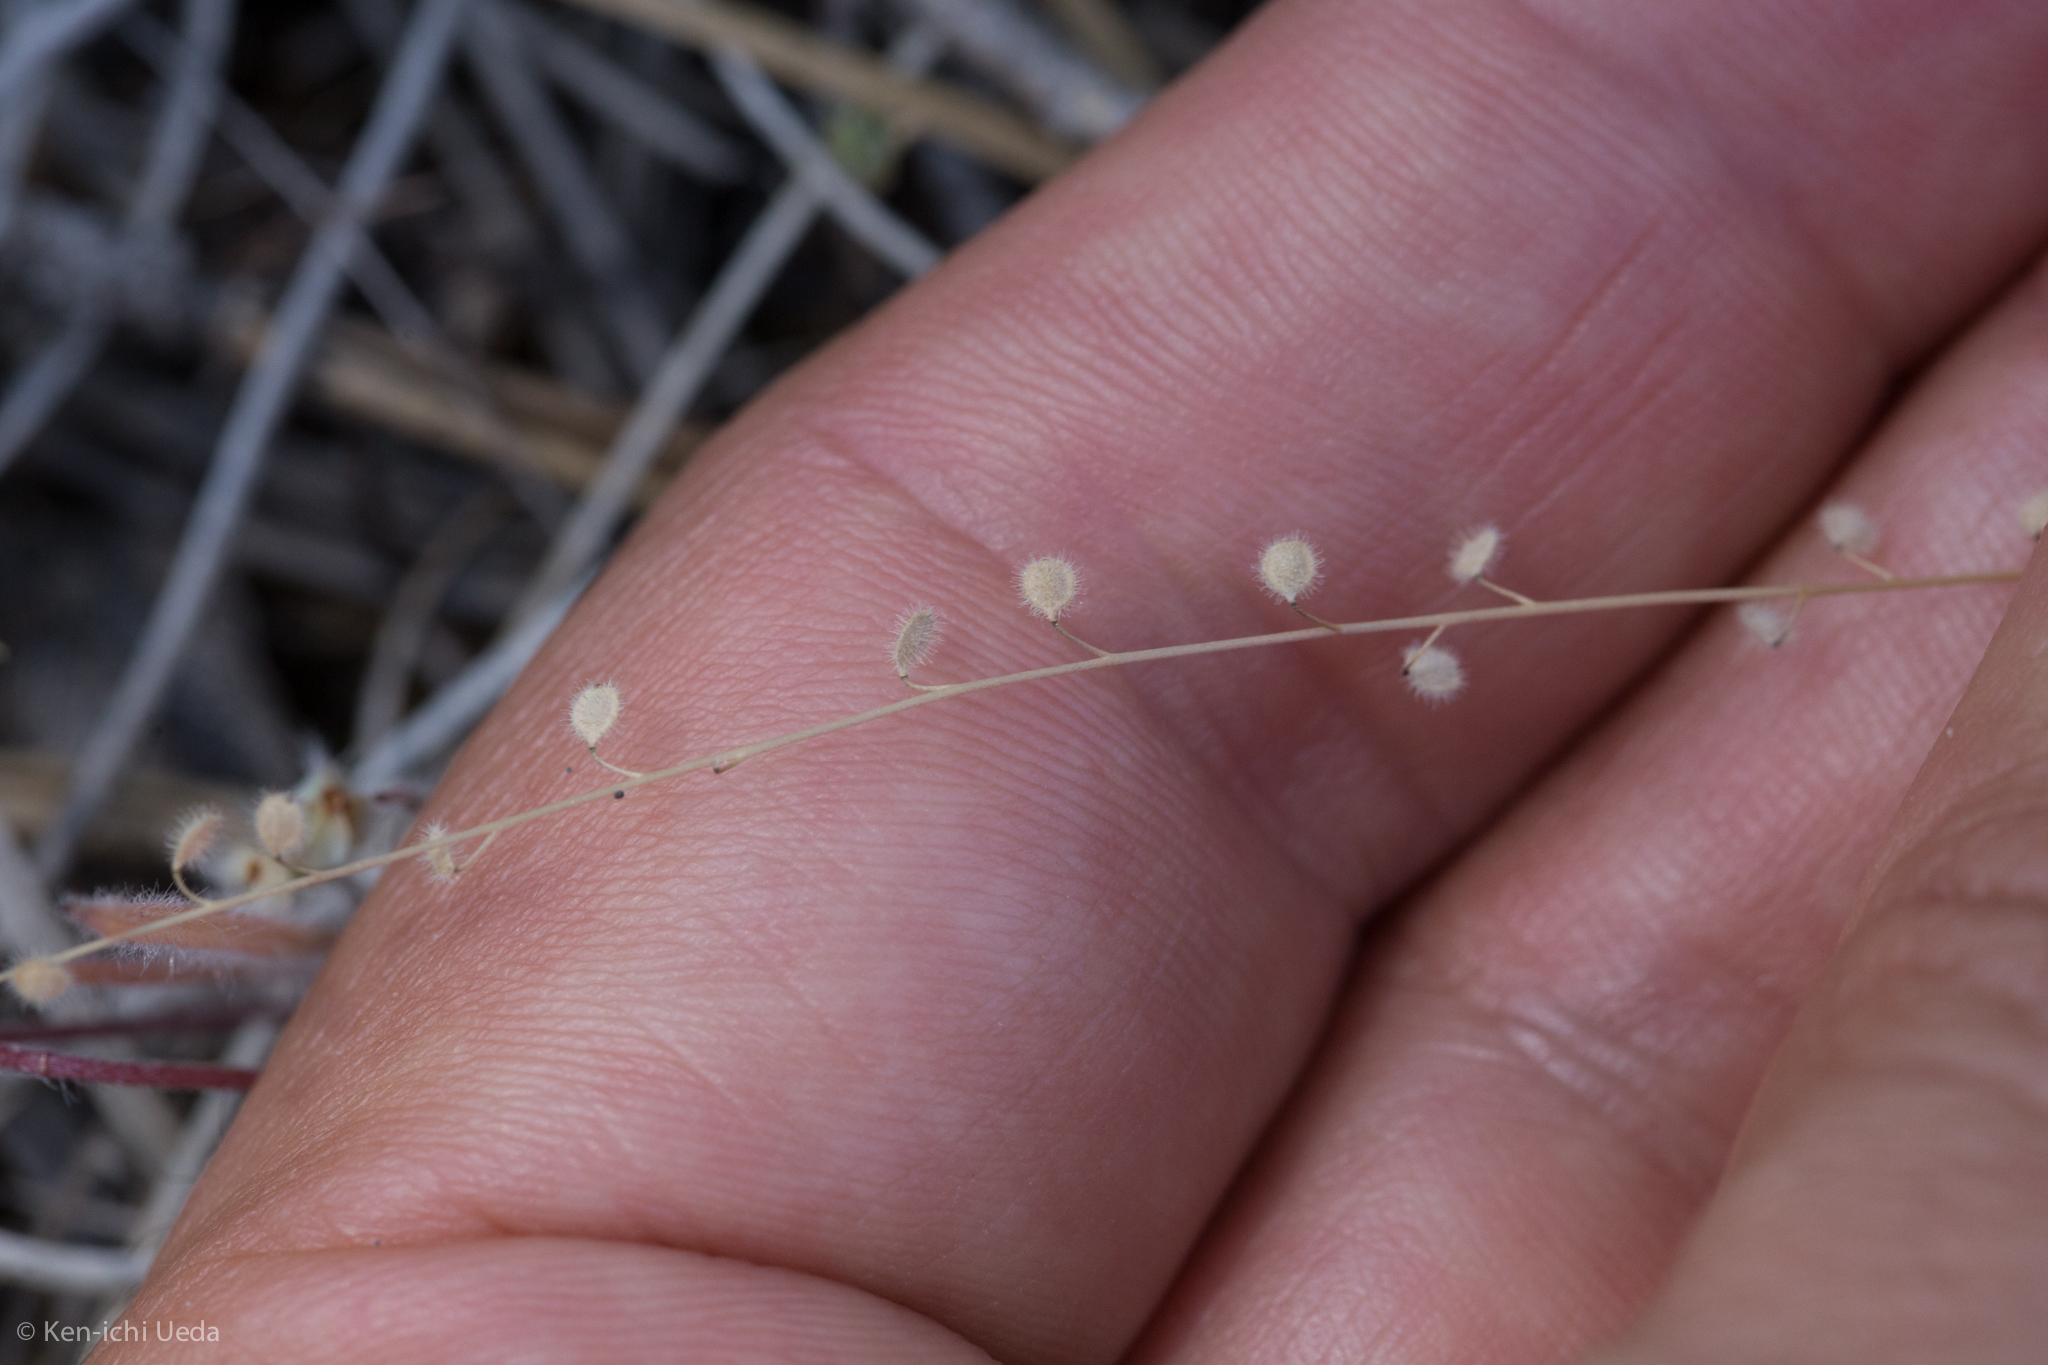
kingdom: Plantae
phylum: Tracheophyta
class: Magnoliopsida
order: Brassicales
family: Brassicaceae
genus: Athysanus
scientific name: Athysanus pusillus
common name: Common sandweed
